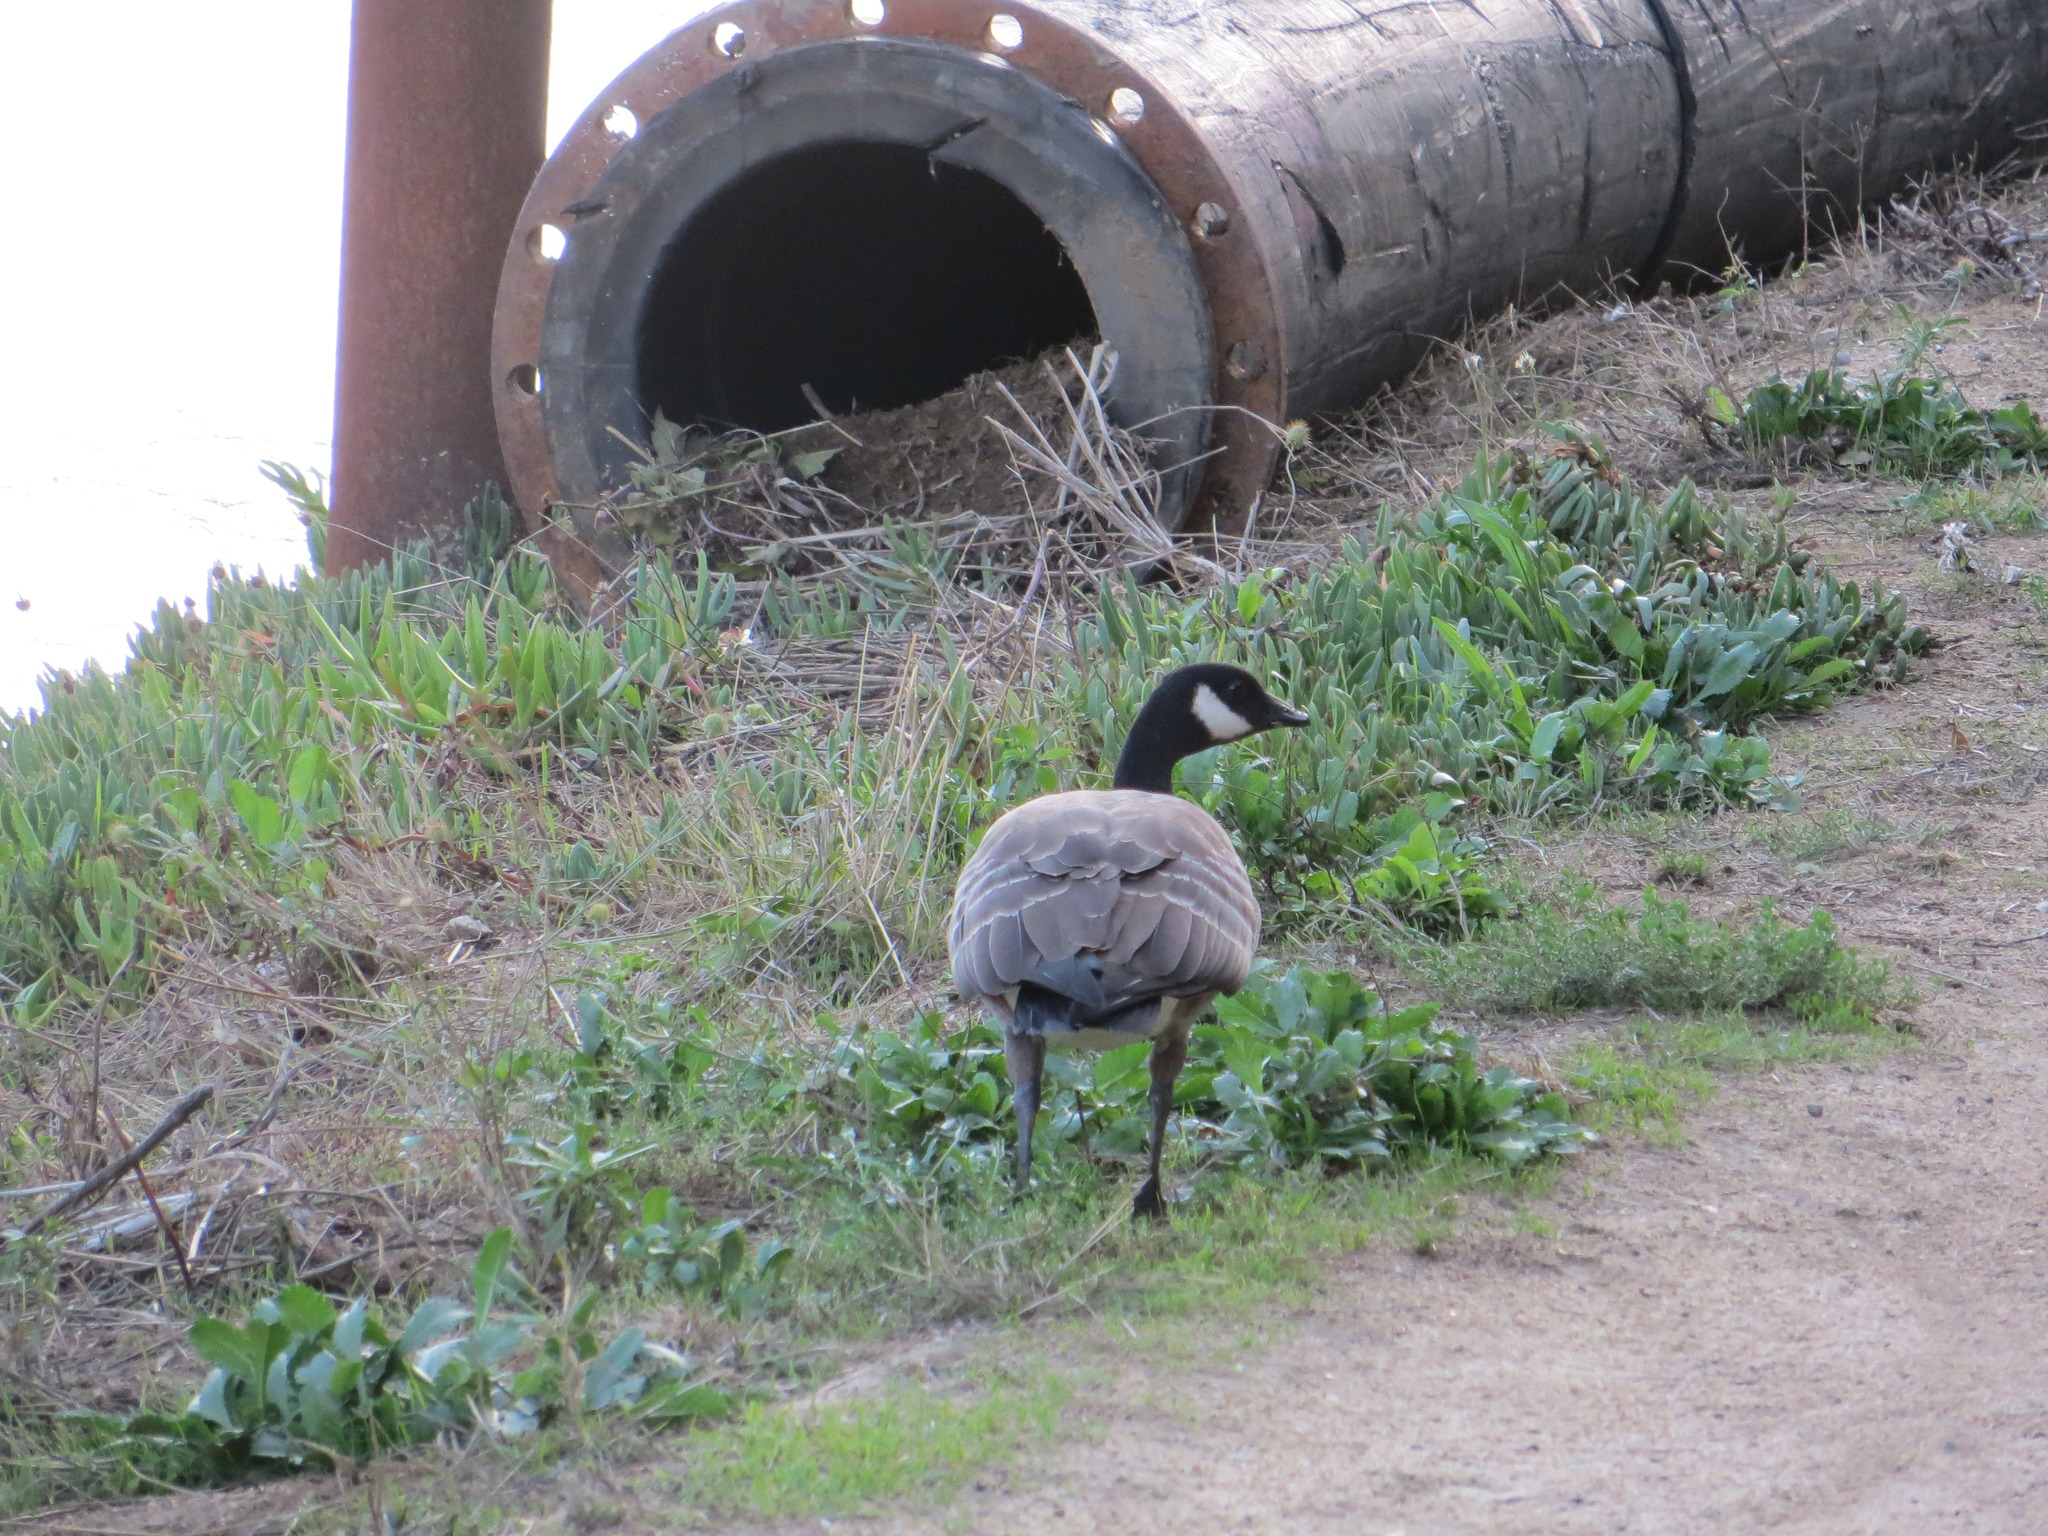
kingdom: Animalia
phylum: Chordata
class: Aves
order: Anseriformes
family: Anatidae
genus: Branta
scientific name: Branta hutchinsii
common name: Cackling goose
